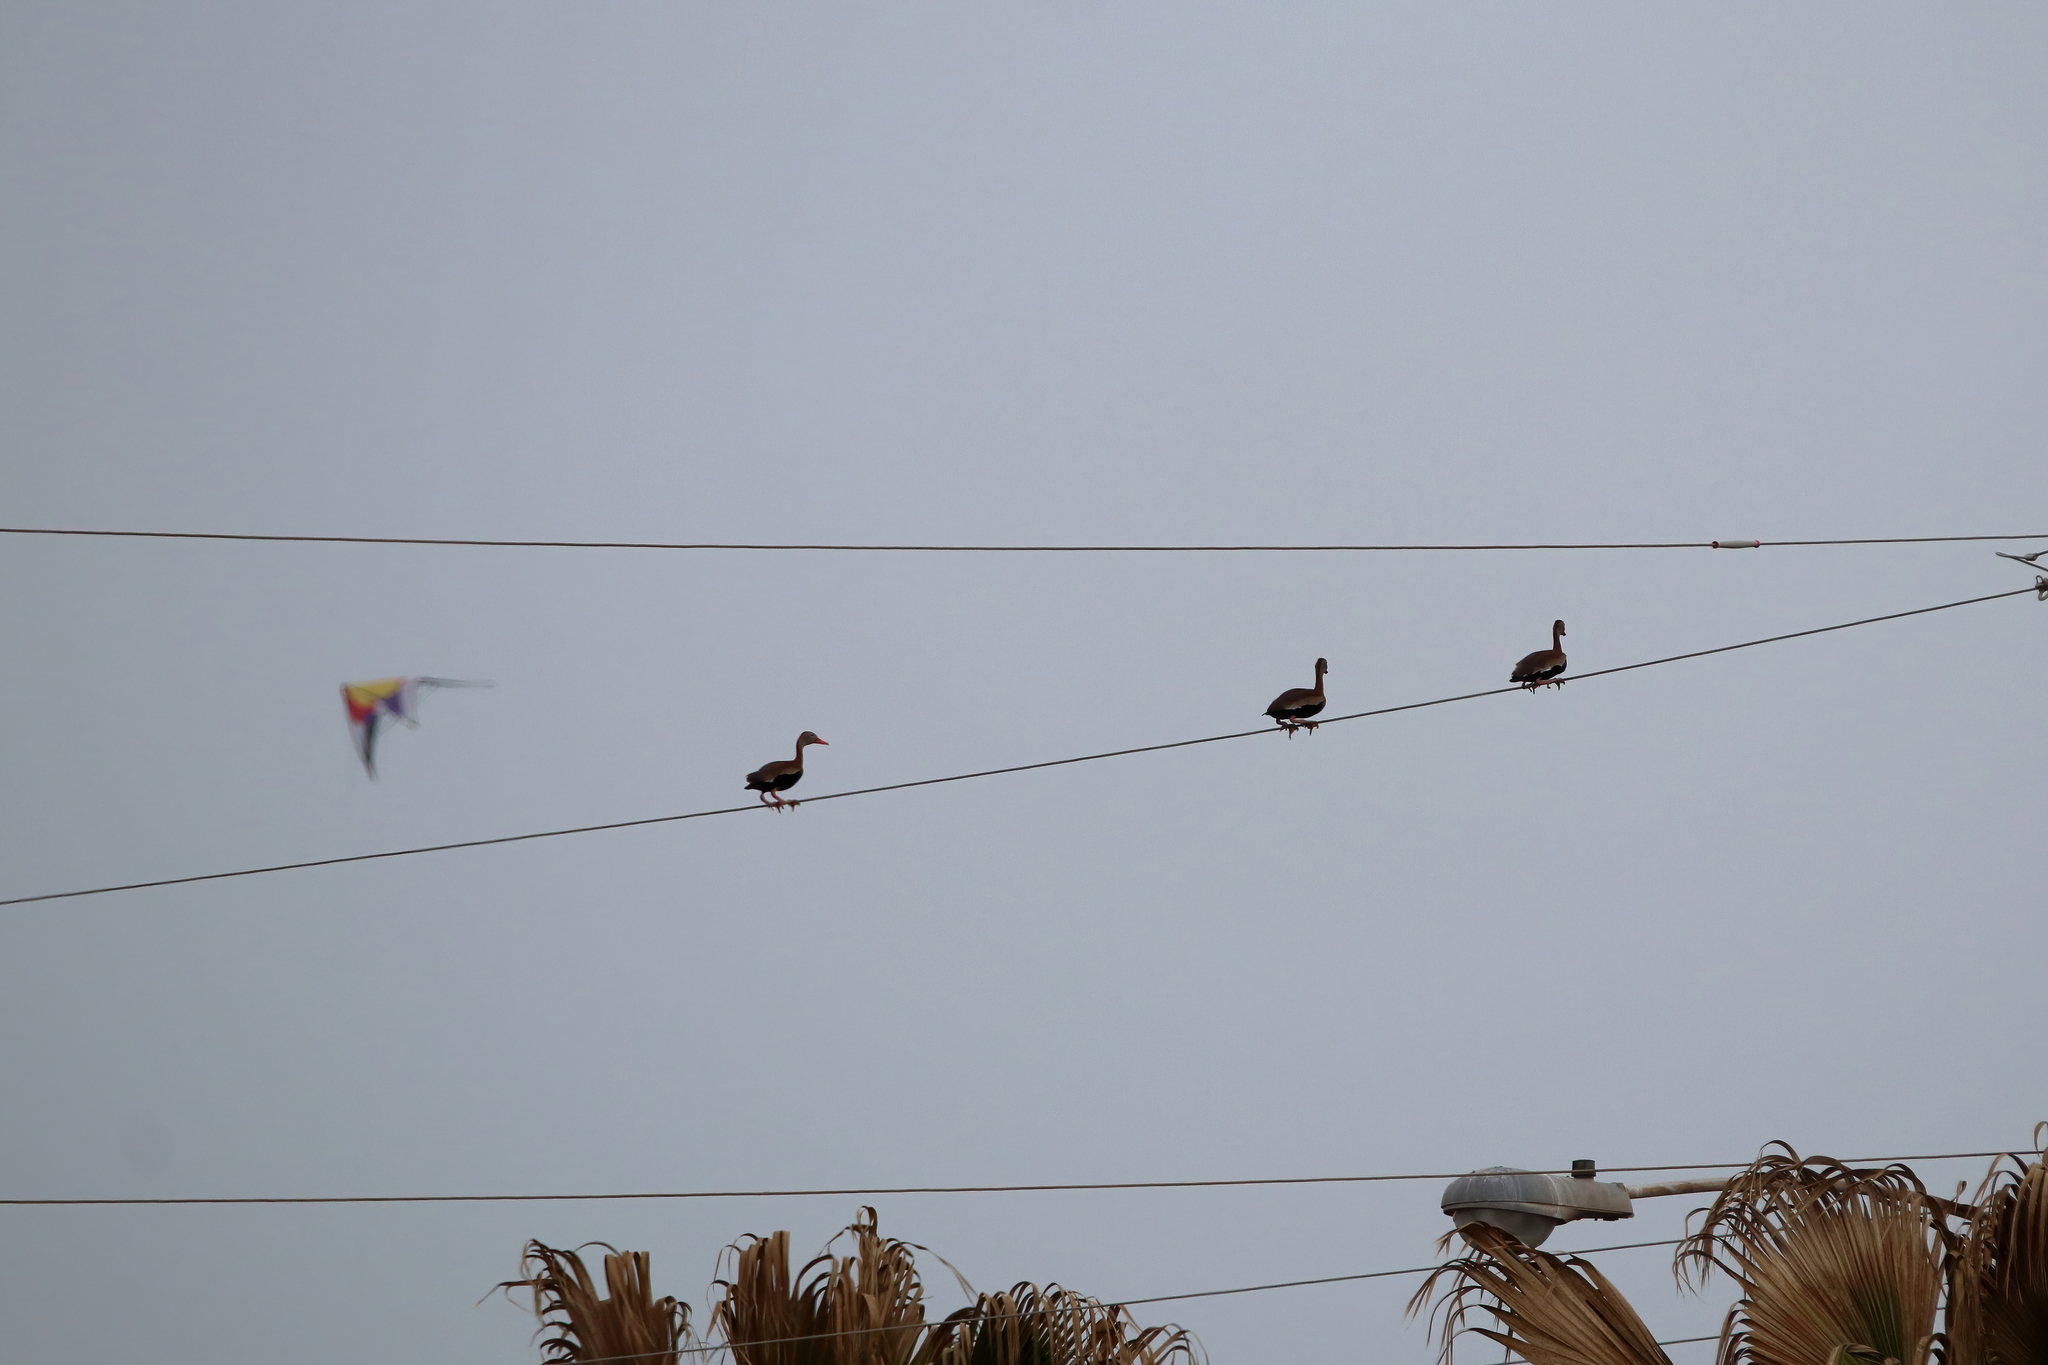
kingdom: Animalia
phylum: Chordata
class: Aves
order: Anseriformes
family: Anatidae
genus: Dendrocygna
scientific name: Dendrocygna autumnalis
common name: Black-bellied whistling duck
